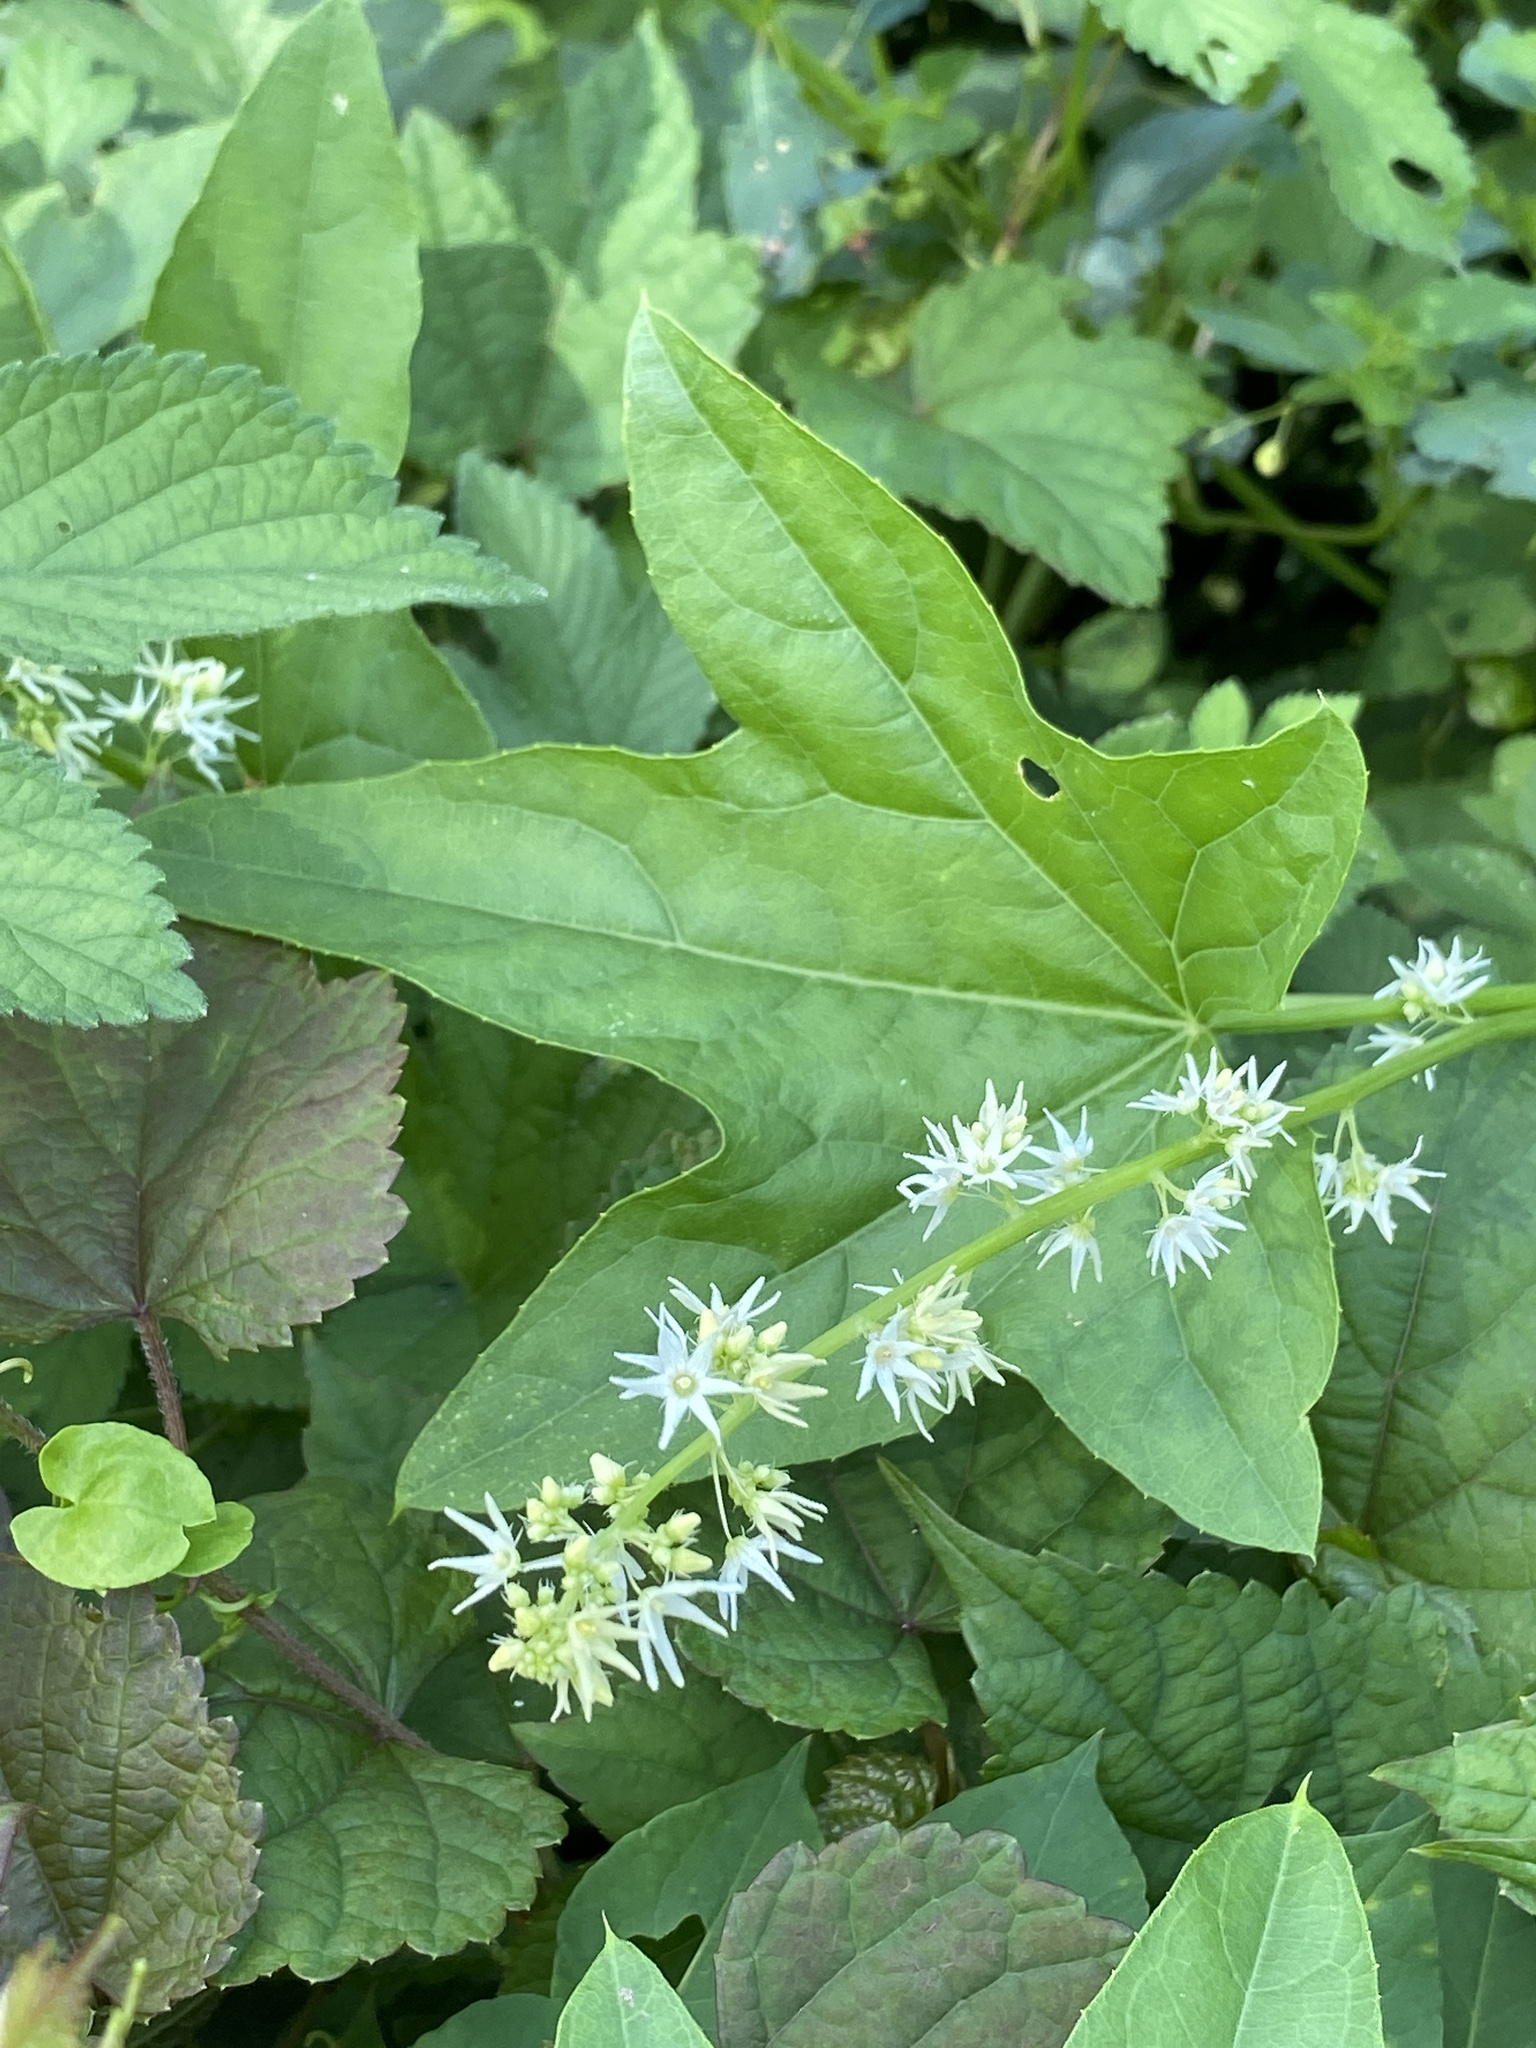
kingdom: Plantae
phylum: Tracheophyta
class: Magnoliopsida
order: Cucurbitales
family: Cucurbitaceae
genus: Echinocystis
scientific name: Echinocystis lobata
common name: Wild cucumber
